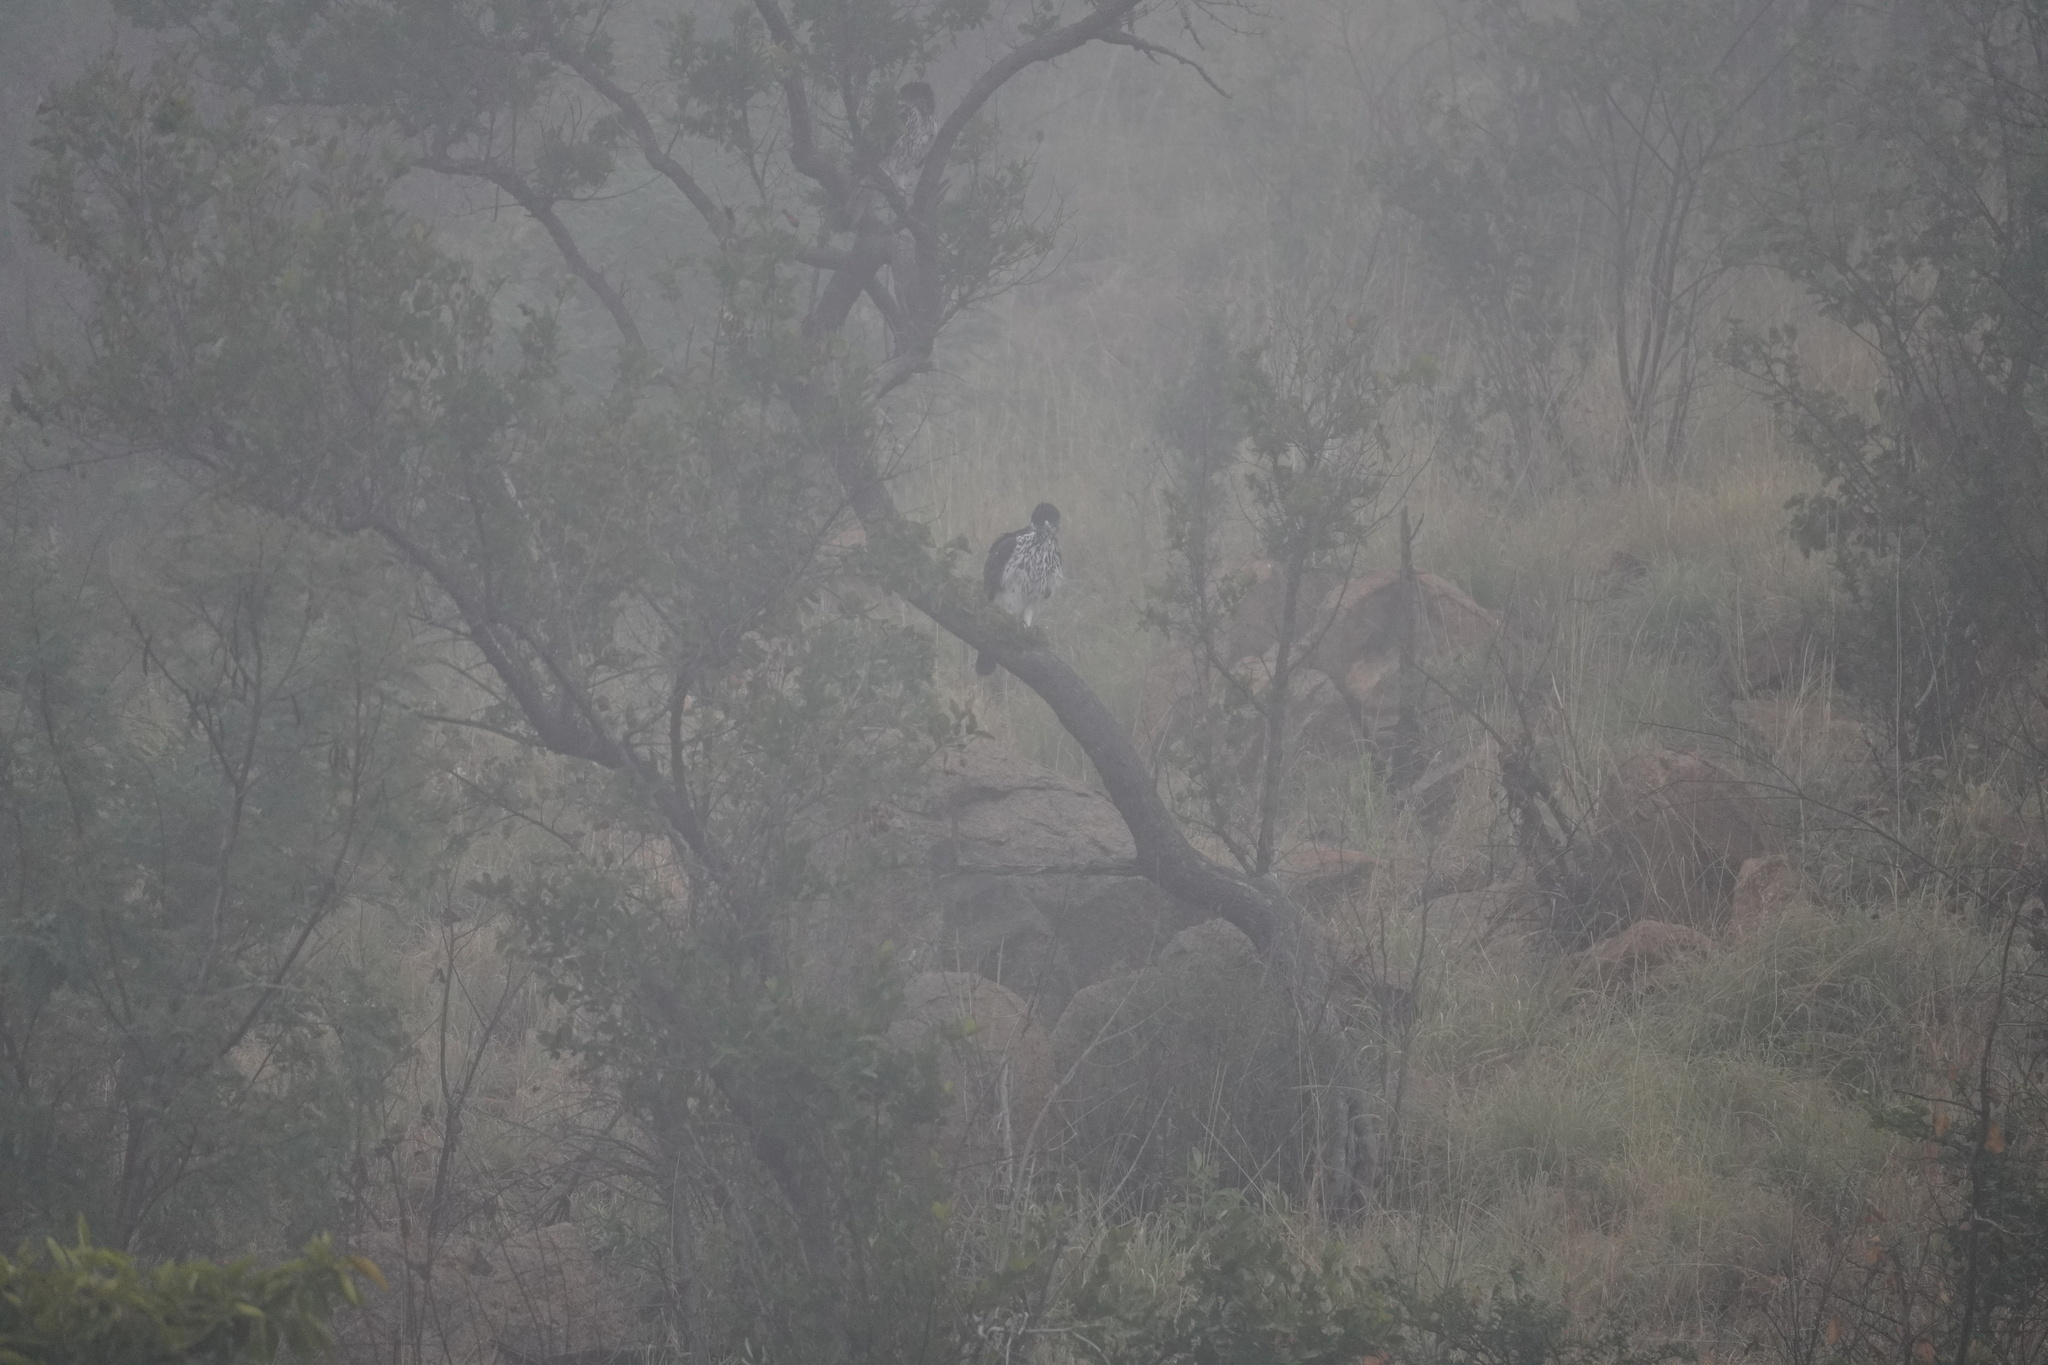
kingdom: Animalia
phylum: Chordata
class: Aves
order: Accipitriformes
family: Accipitridae
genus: Aquila
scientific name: Aquila spilogaster
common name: African hawk-eagle
